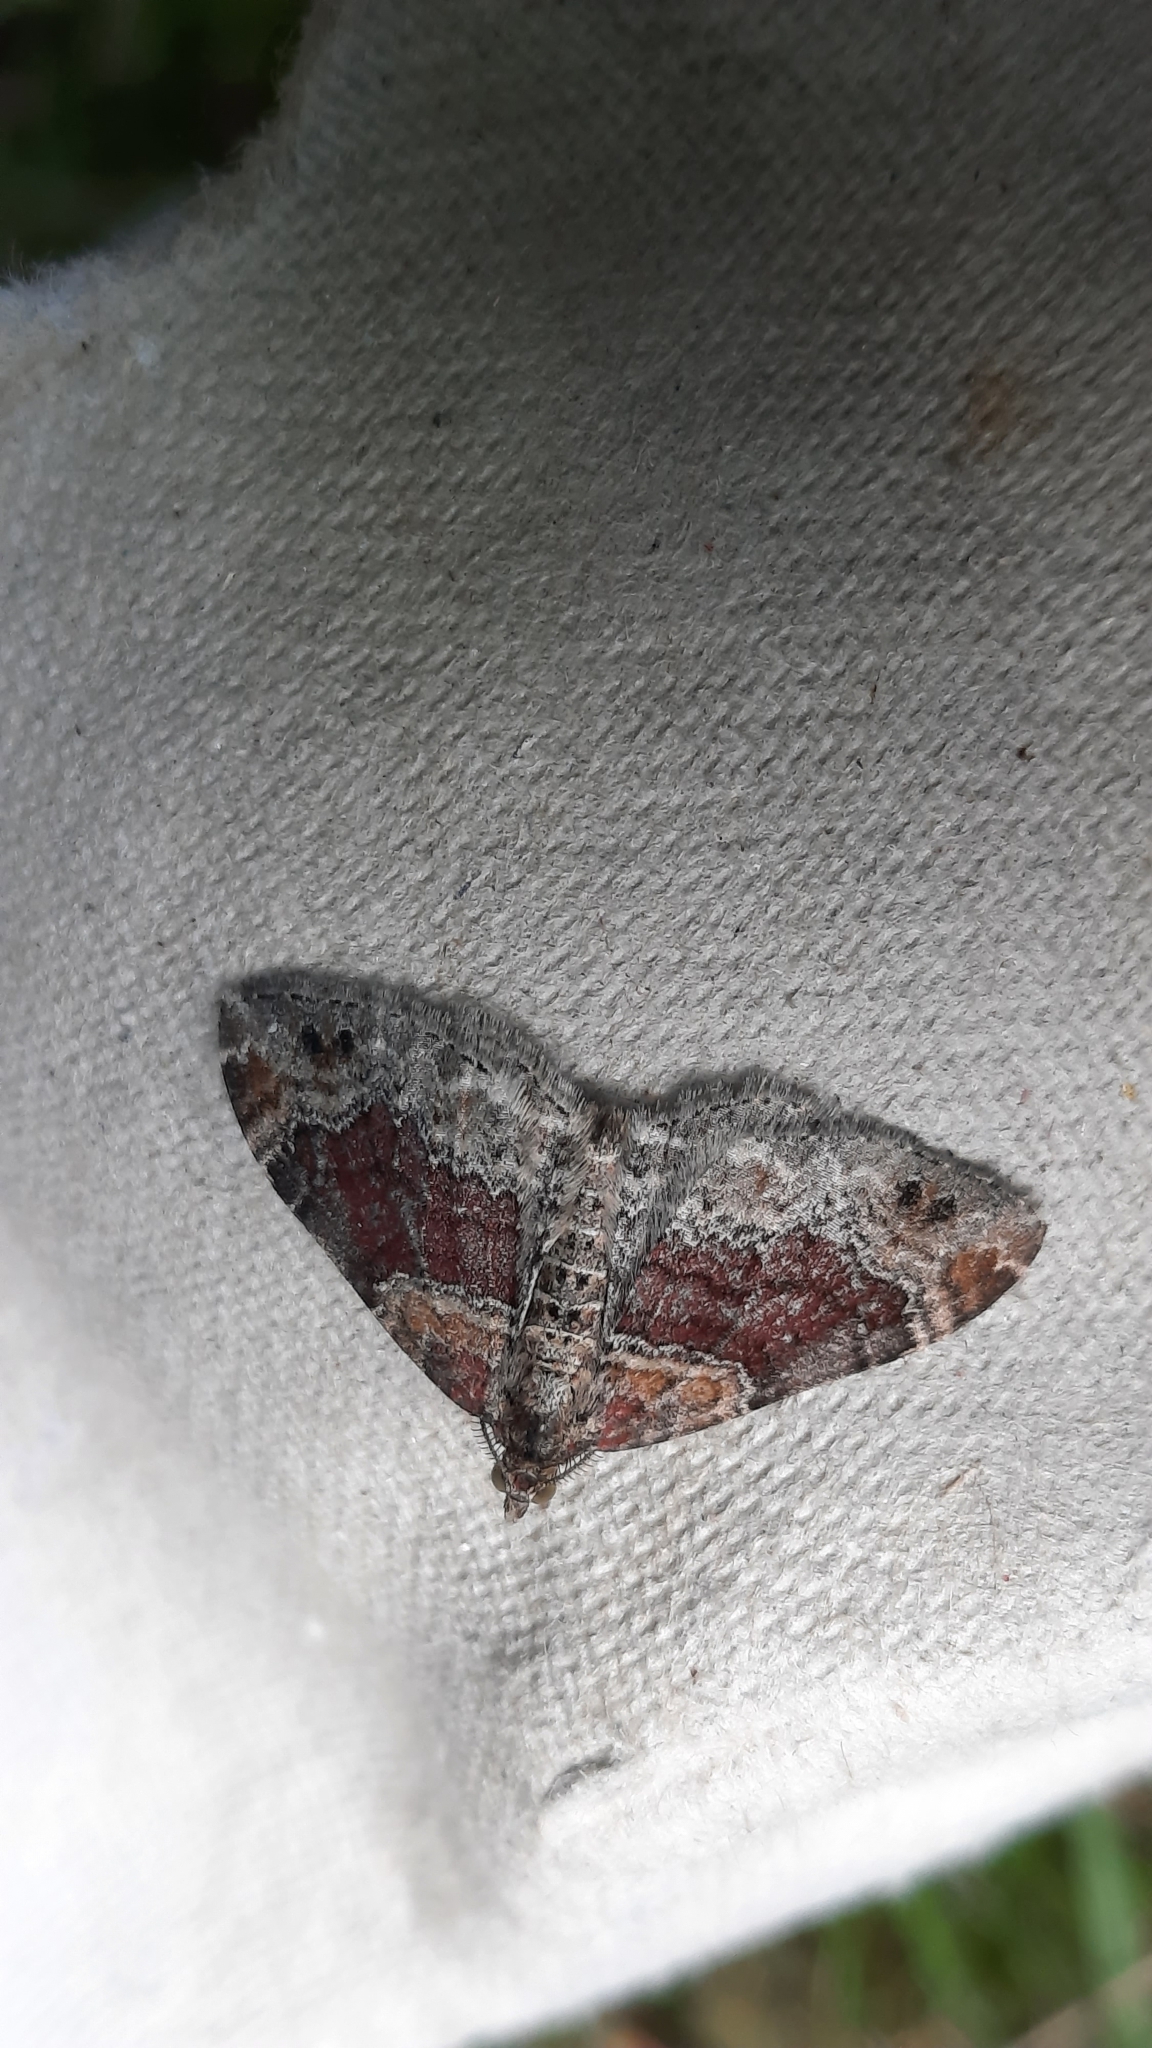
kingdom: Animalia
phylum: Arthropoda
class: Insecta
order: Lepidoptera
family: Geometridae
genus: Xanthorhoe
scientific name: Xanthorhoe spadicearia
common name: Red twin-spot carpet
